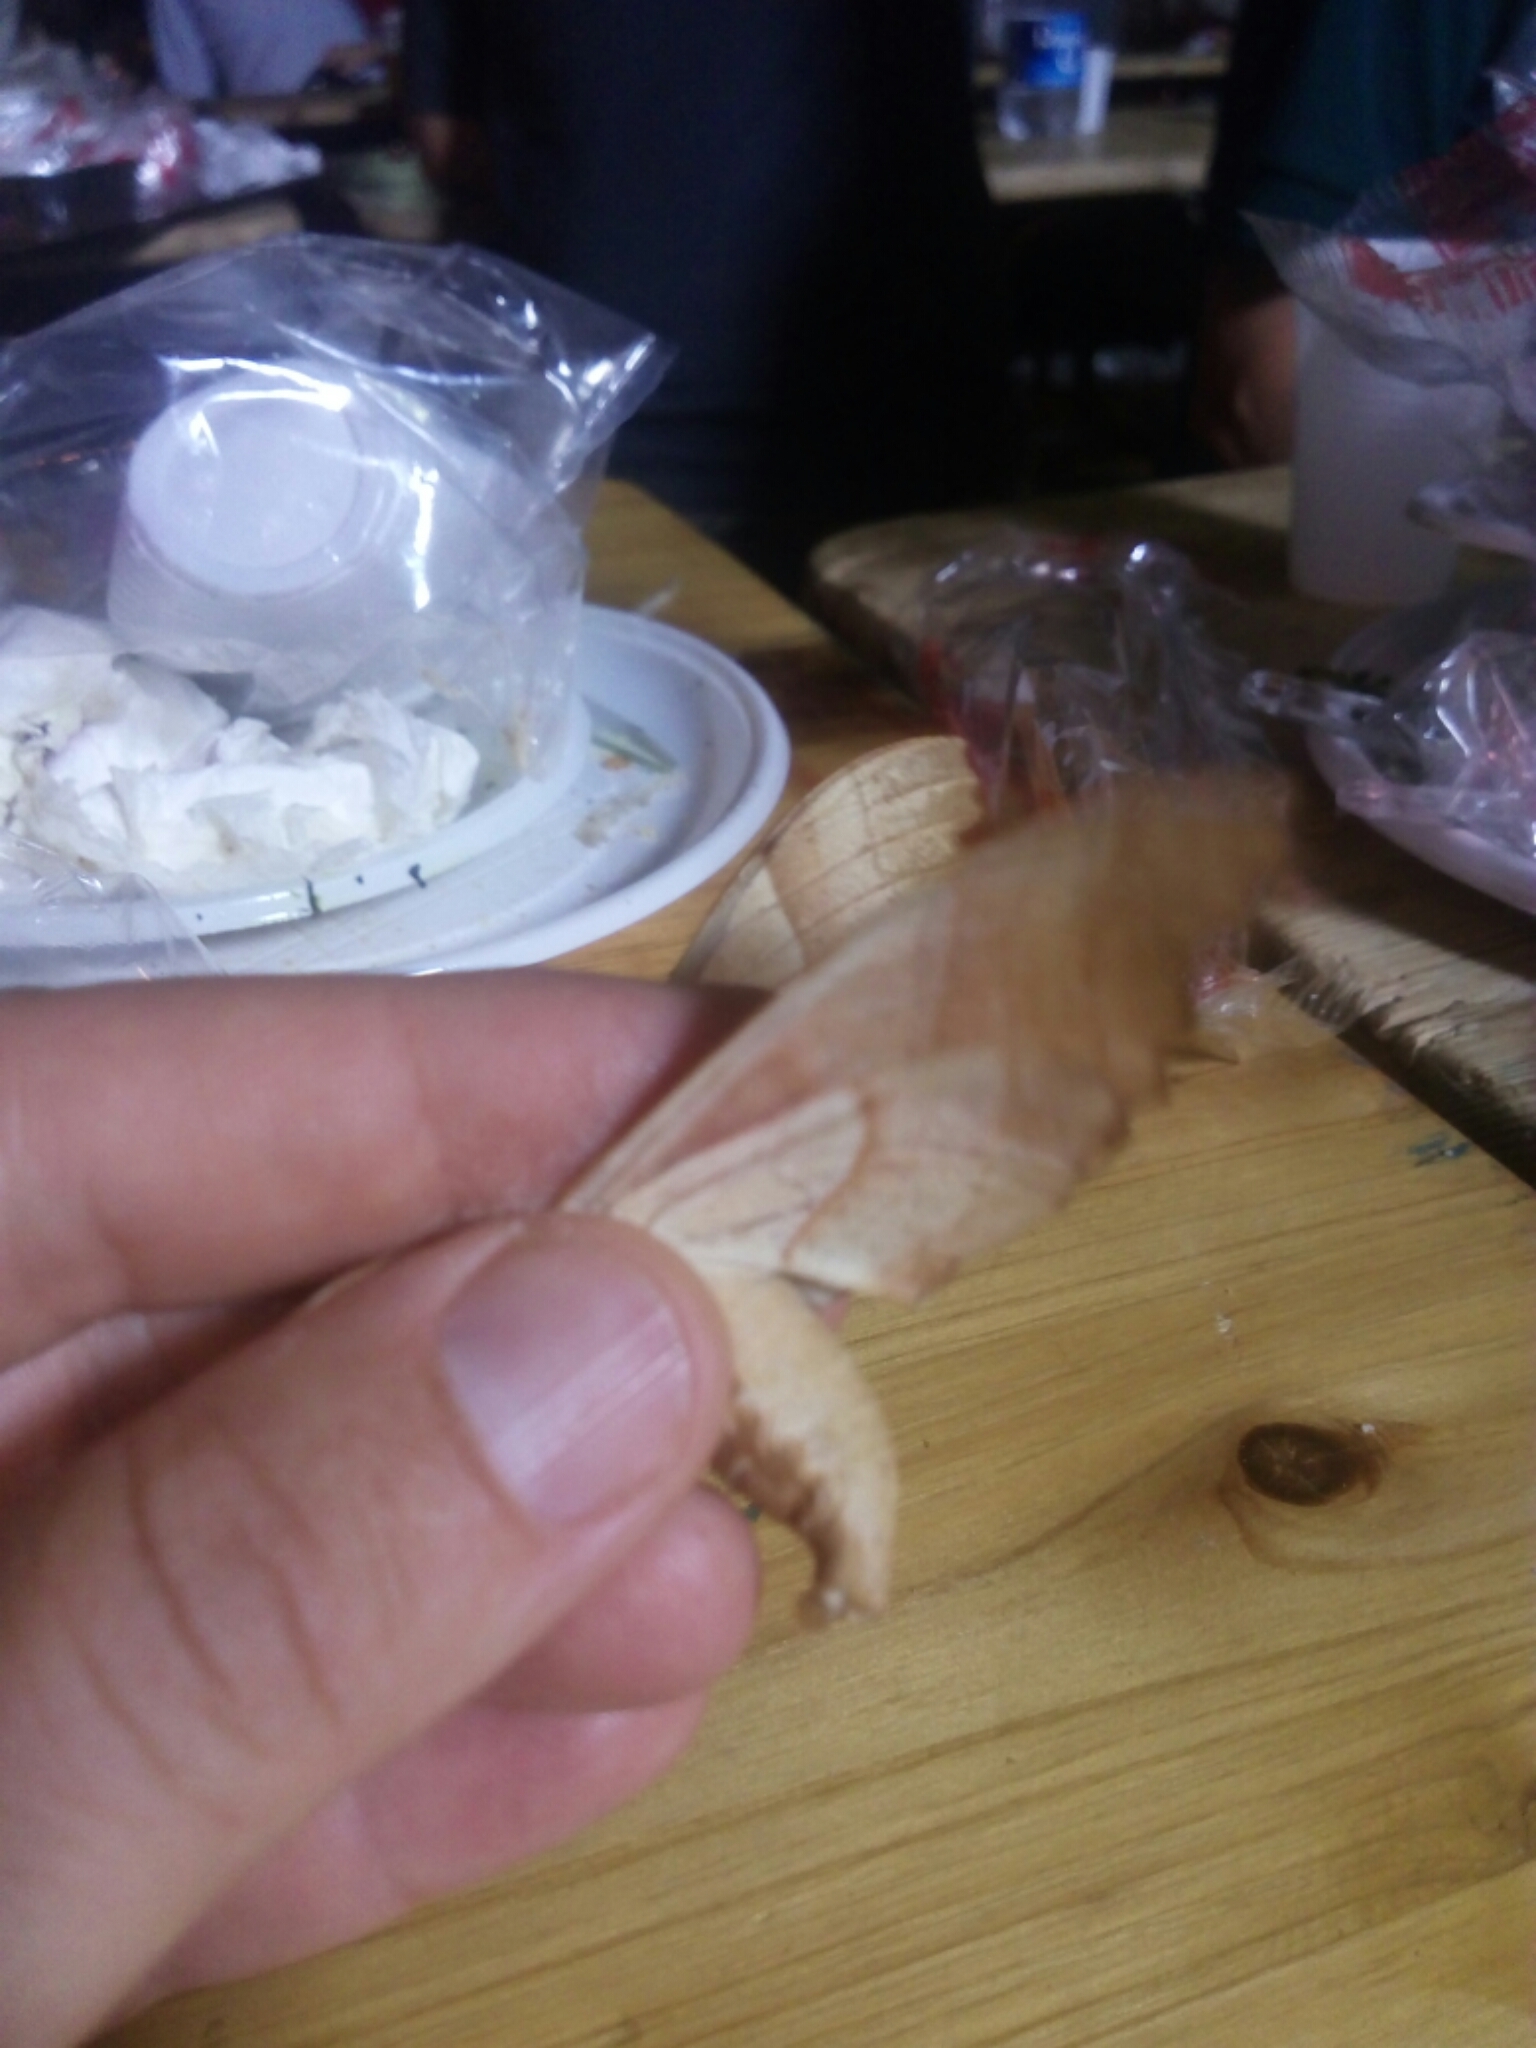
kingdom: Animalia
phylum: Arthropoda
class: Insecta
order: Lepidoptera
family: Sphingidae
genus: Marumba
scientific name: Marumba quercus
